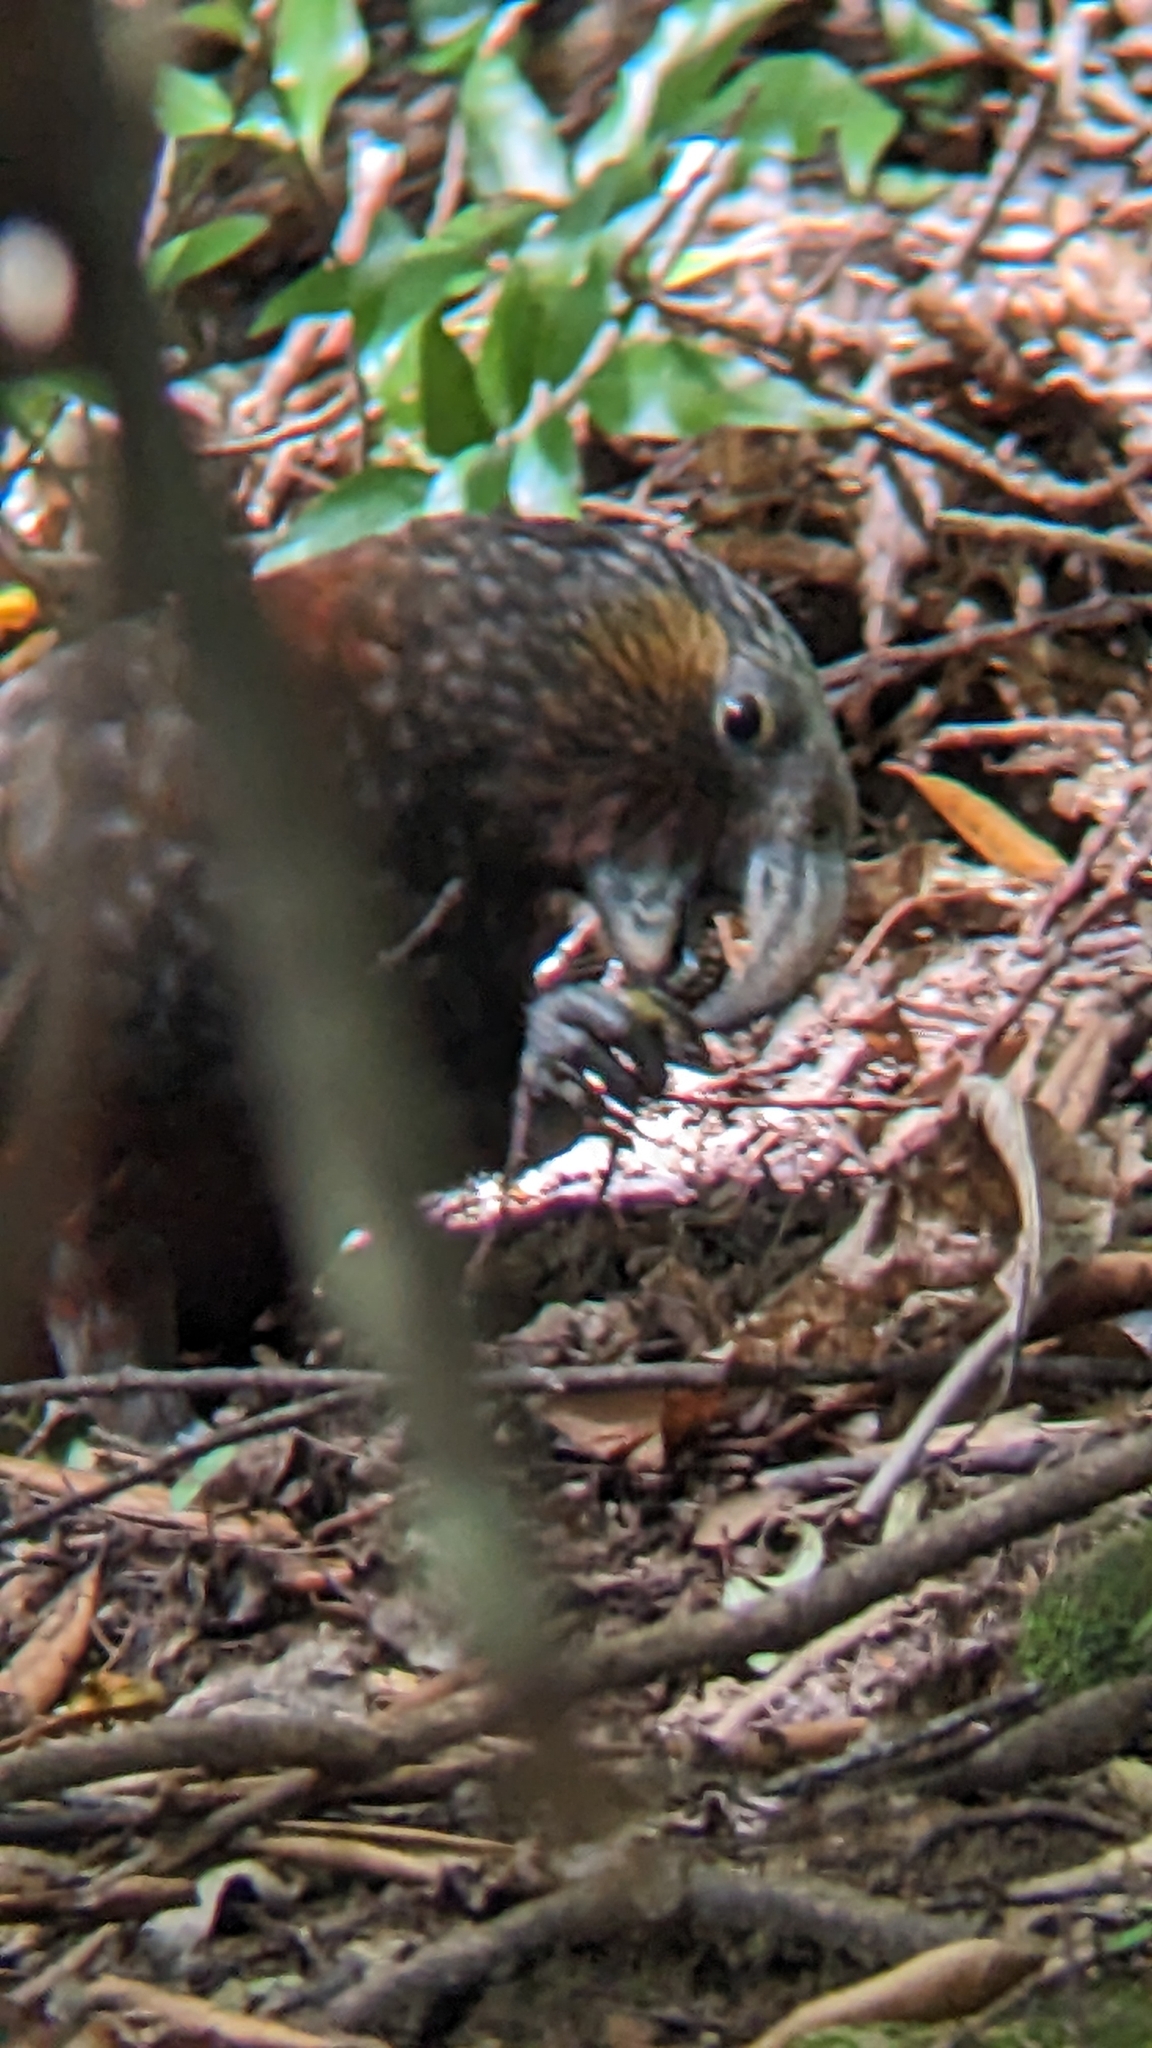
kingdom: Animalia
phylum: Chordata
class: Aves
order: Psittaciformes
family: Psittacidae
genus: Nestor
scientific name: Nestor meridionalis
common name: New zealand kaka
